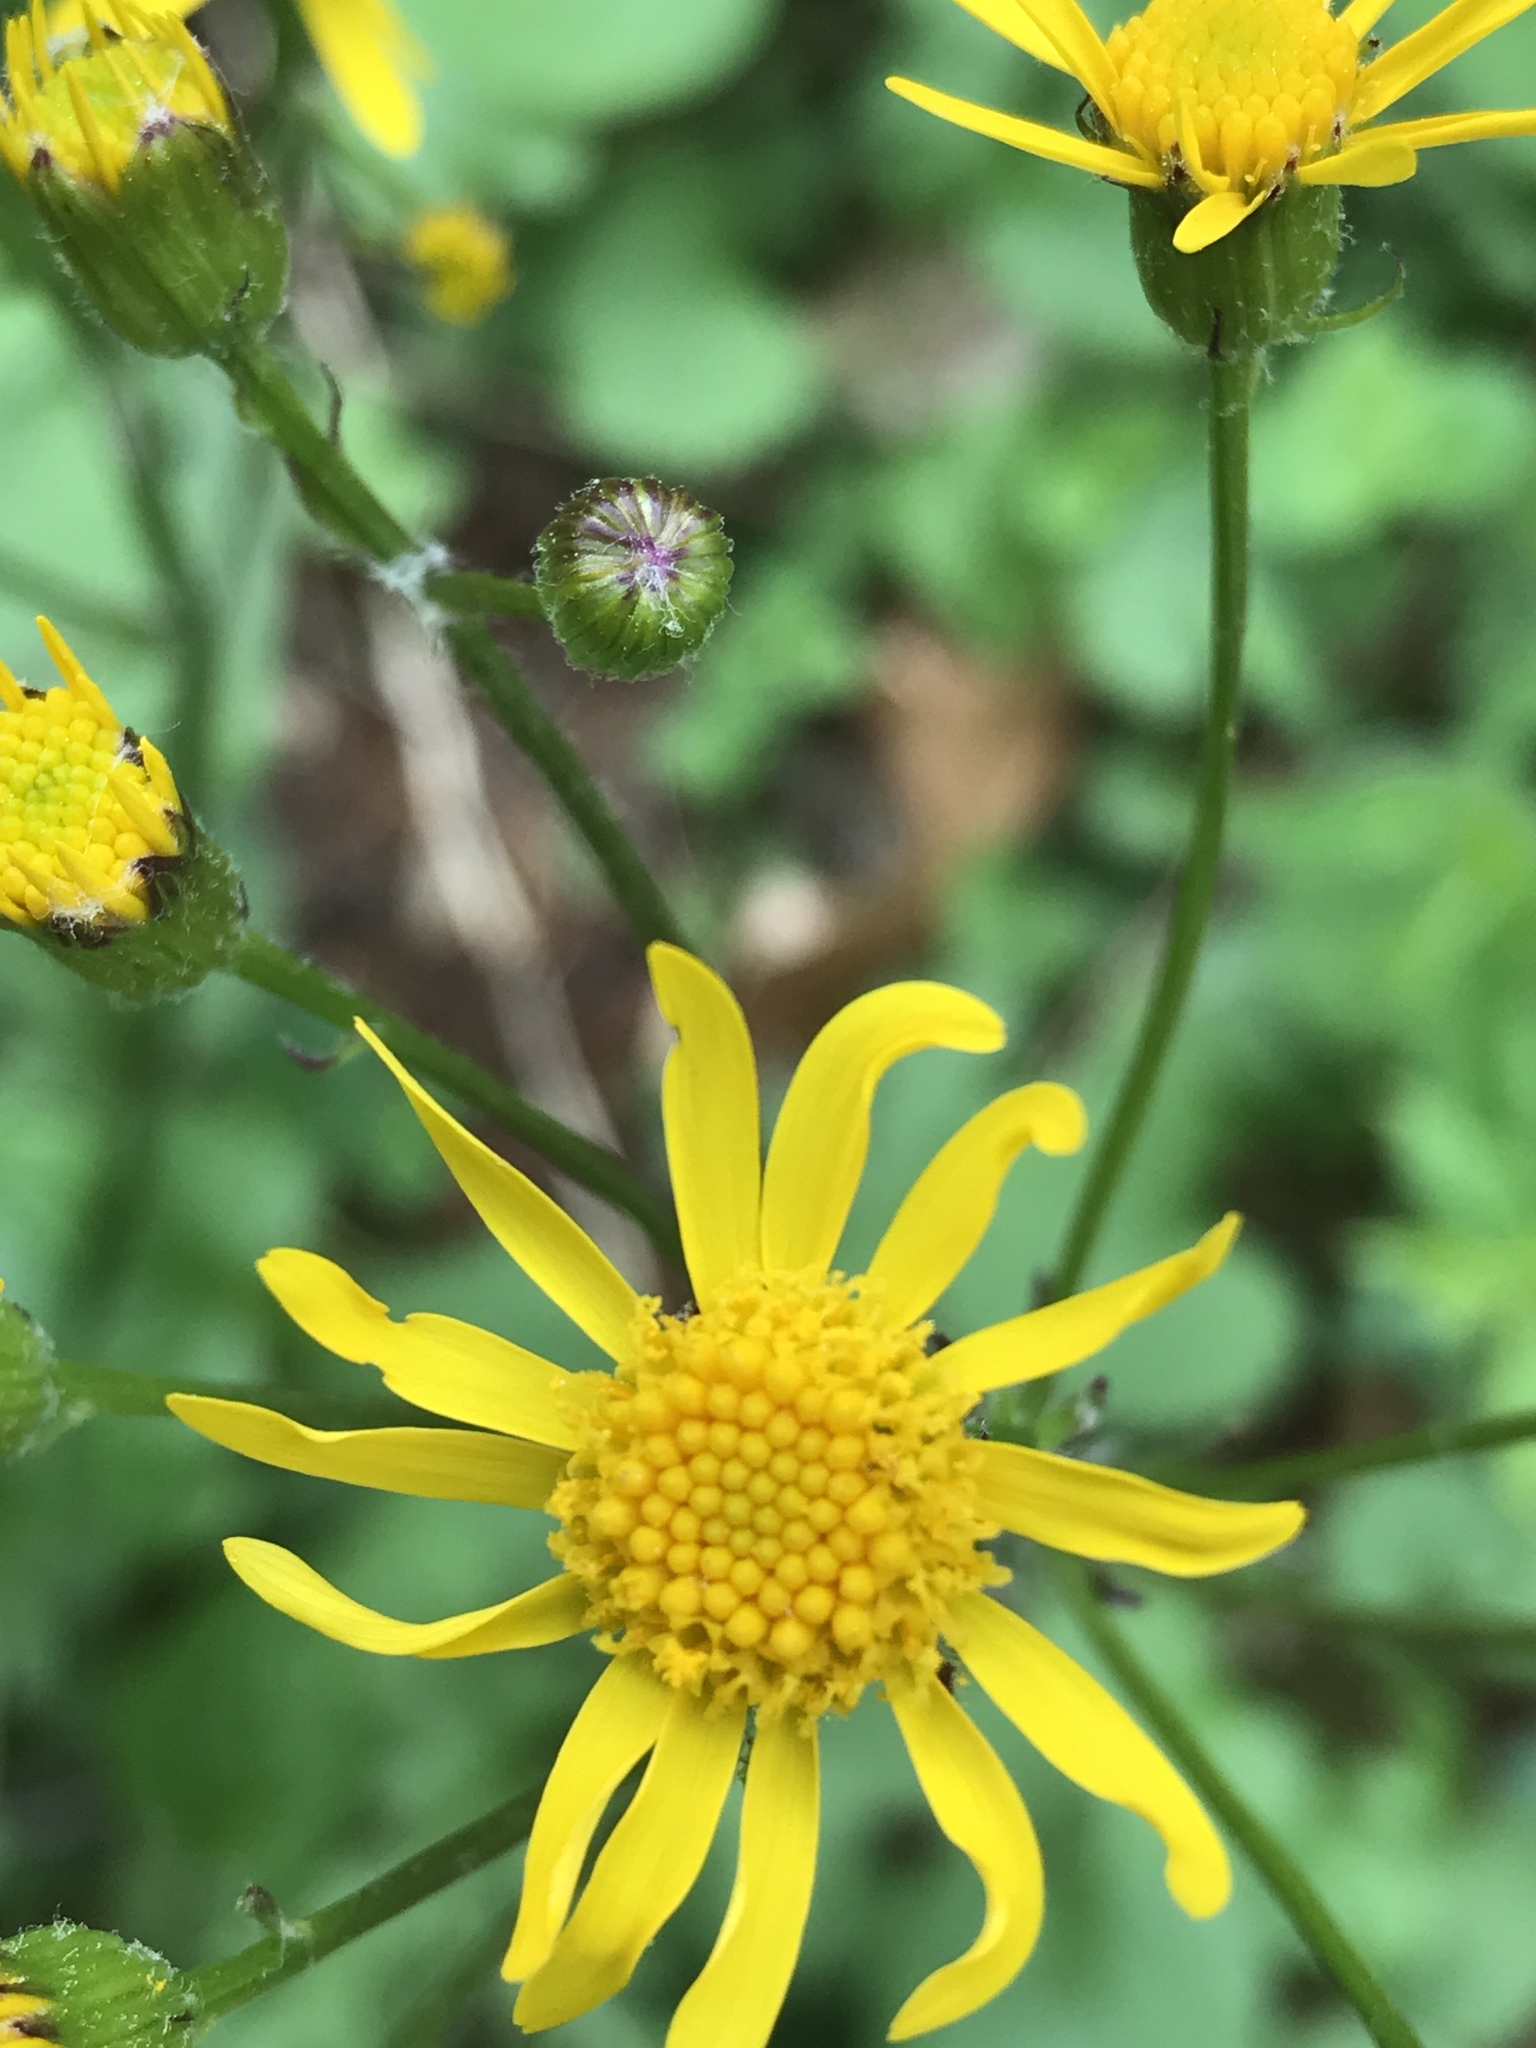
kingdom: Plantae
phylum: Tracheophyta
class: Magnoliopsida
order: Asterales
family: Asteraceae
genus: Packera
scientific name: Packera aurea
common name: Golden groundsel
